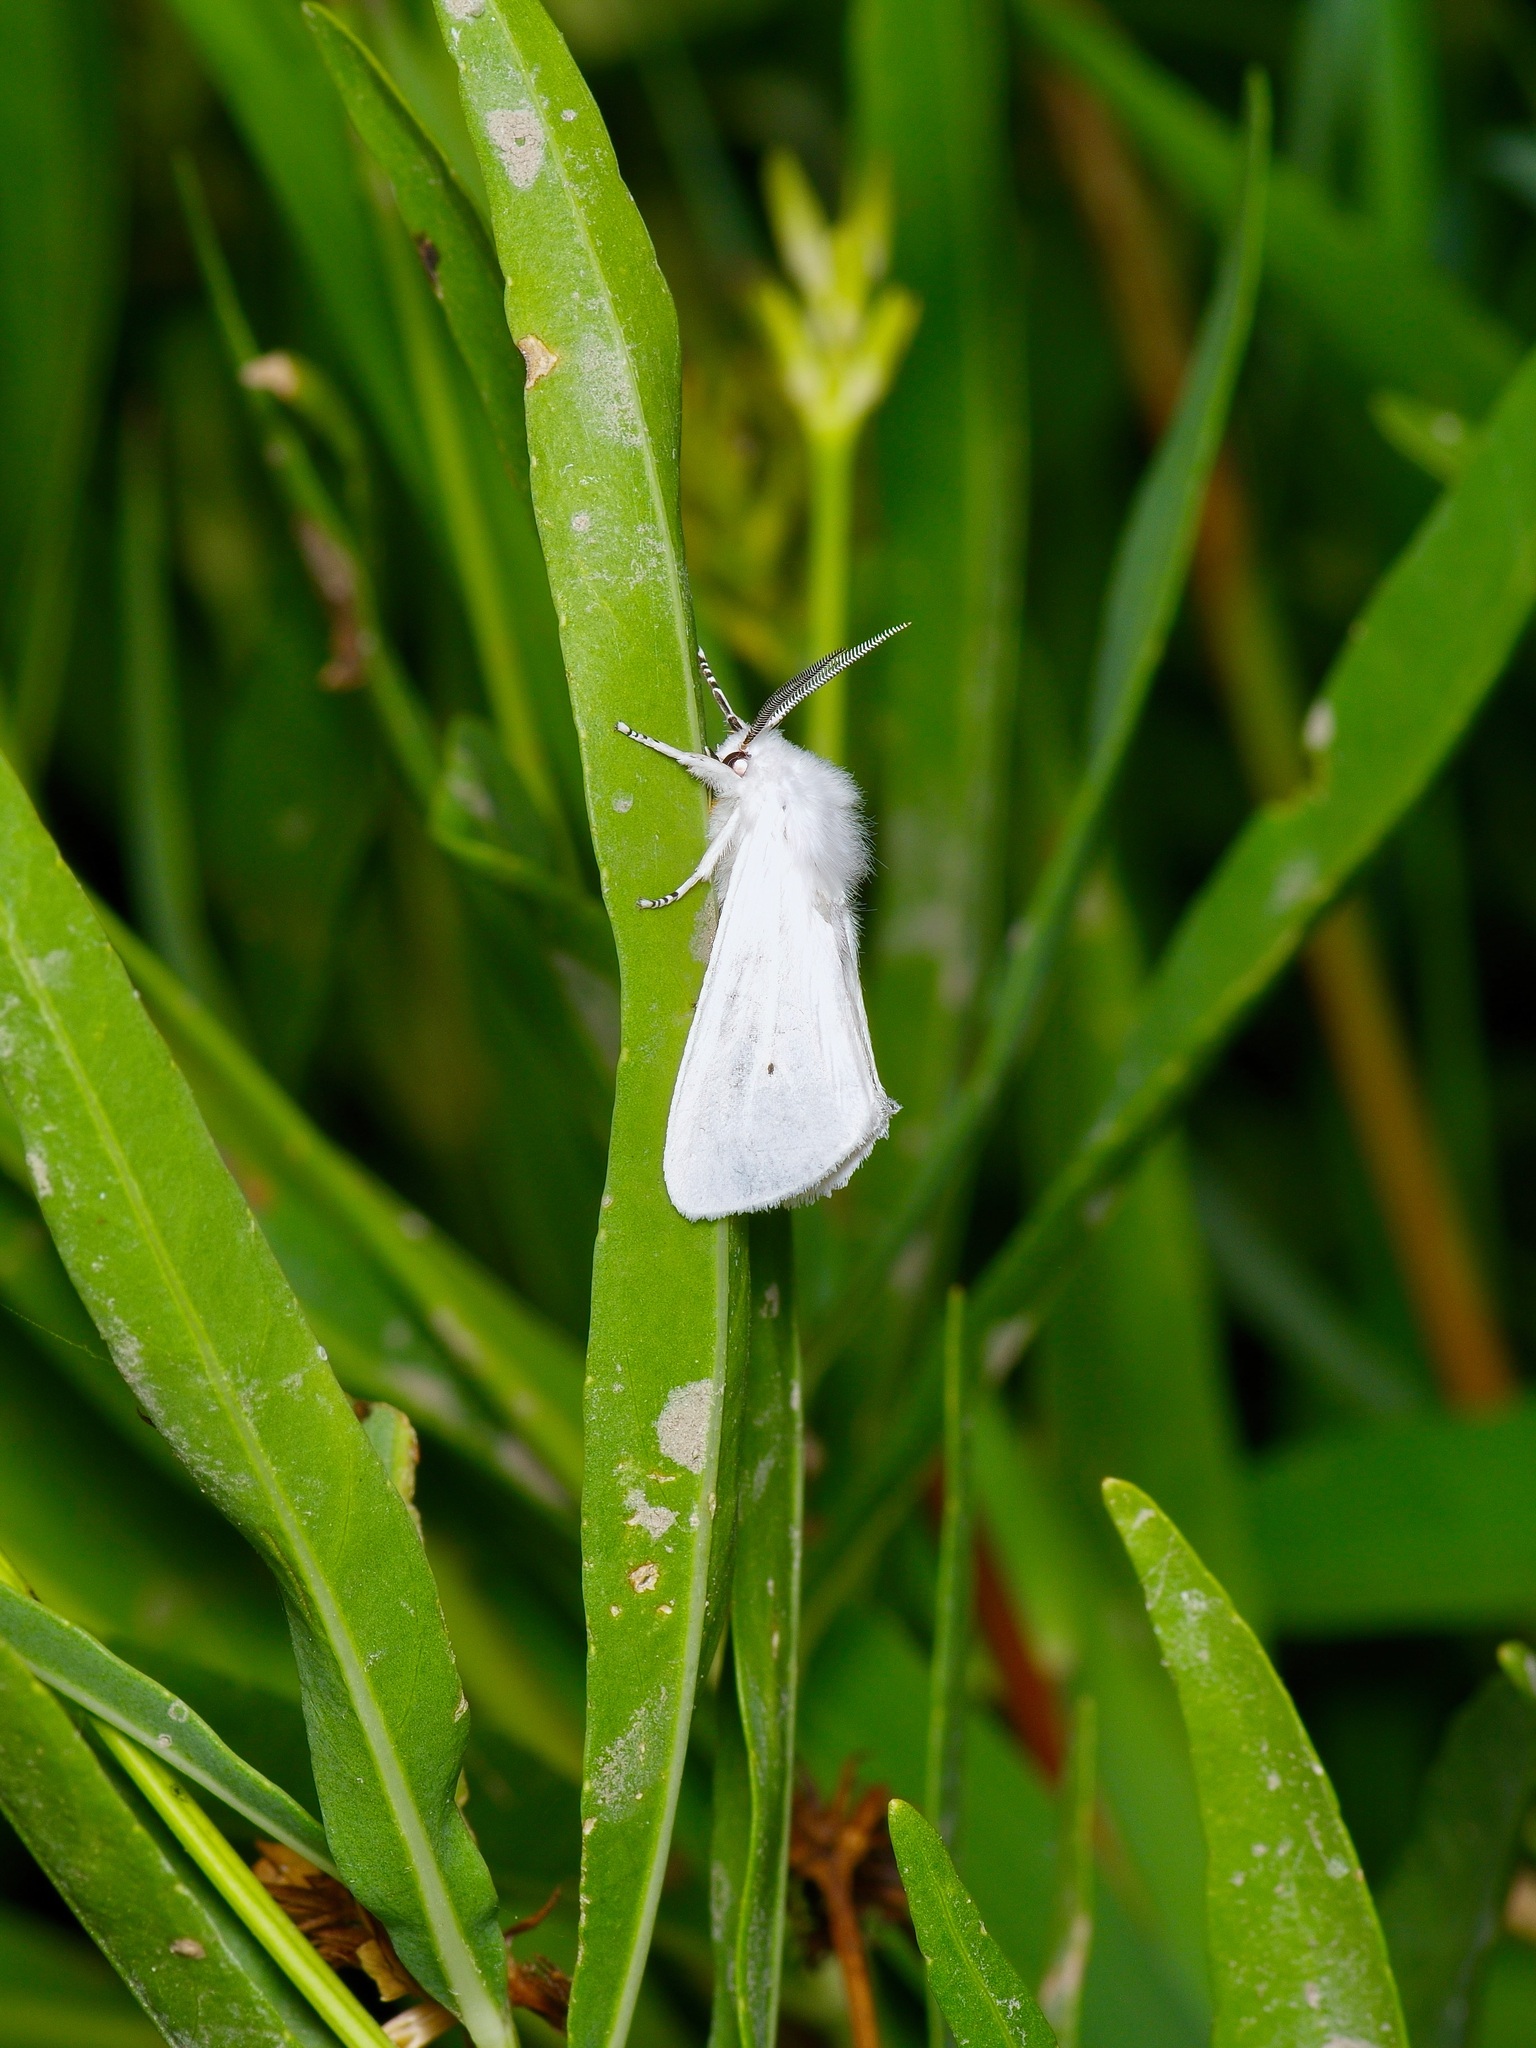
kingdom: Animalia
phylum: Arthropoda
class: Insecta
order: Lepidoptera
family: Erebidae
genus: Spilosoma
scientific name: Spilosoma virginica
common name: Virginia tiger moth
